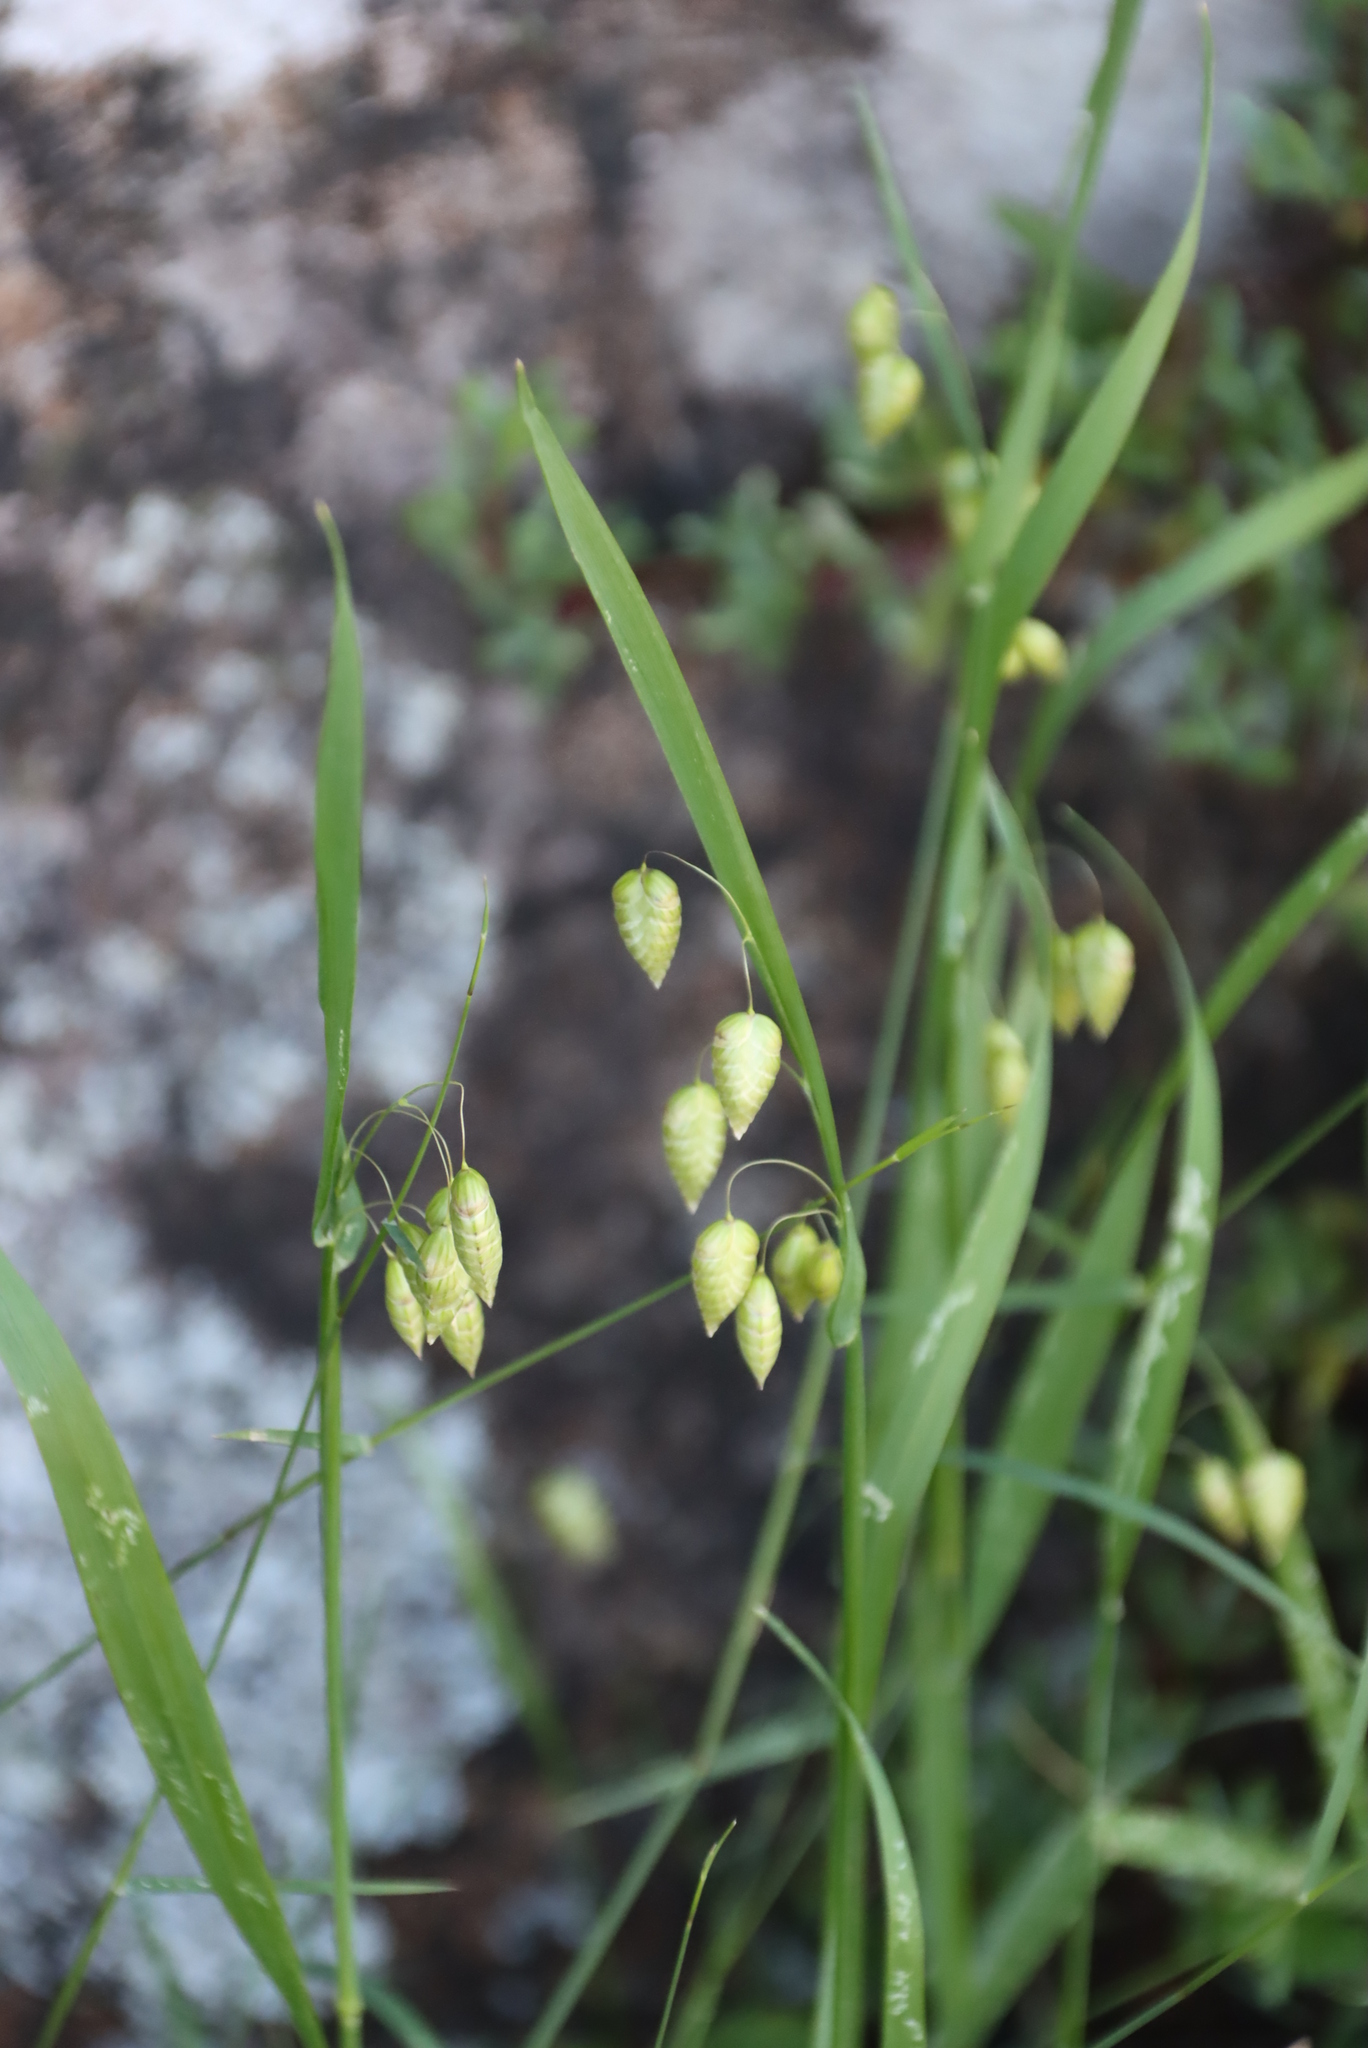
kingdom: Plantae
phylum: Tracheophyta
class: Liliopsida
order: Poales
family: Poaceae
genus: Briza
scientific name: Briza maxima
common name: Big quakinggrass
